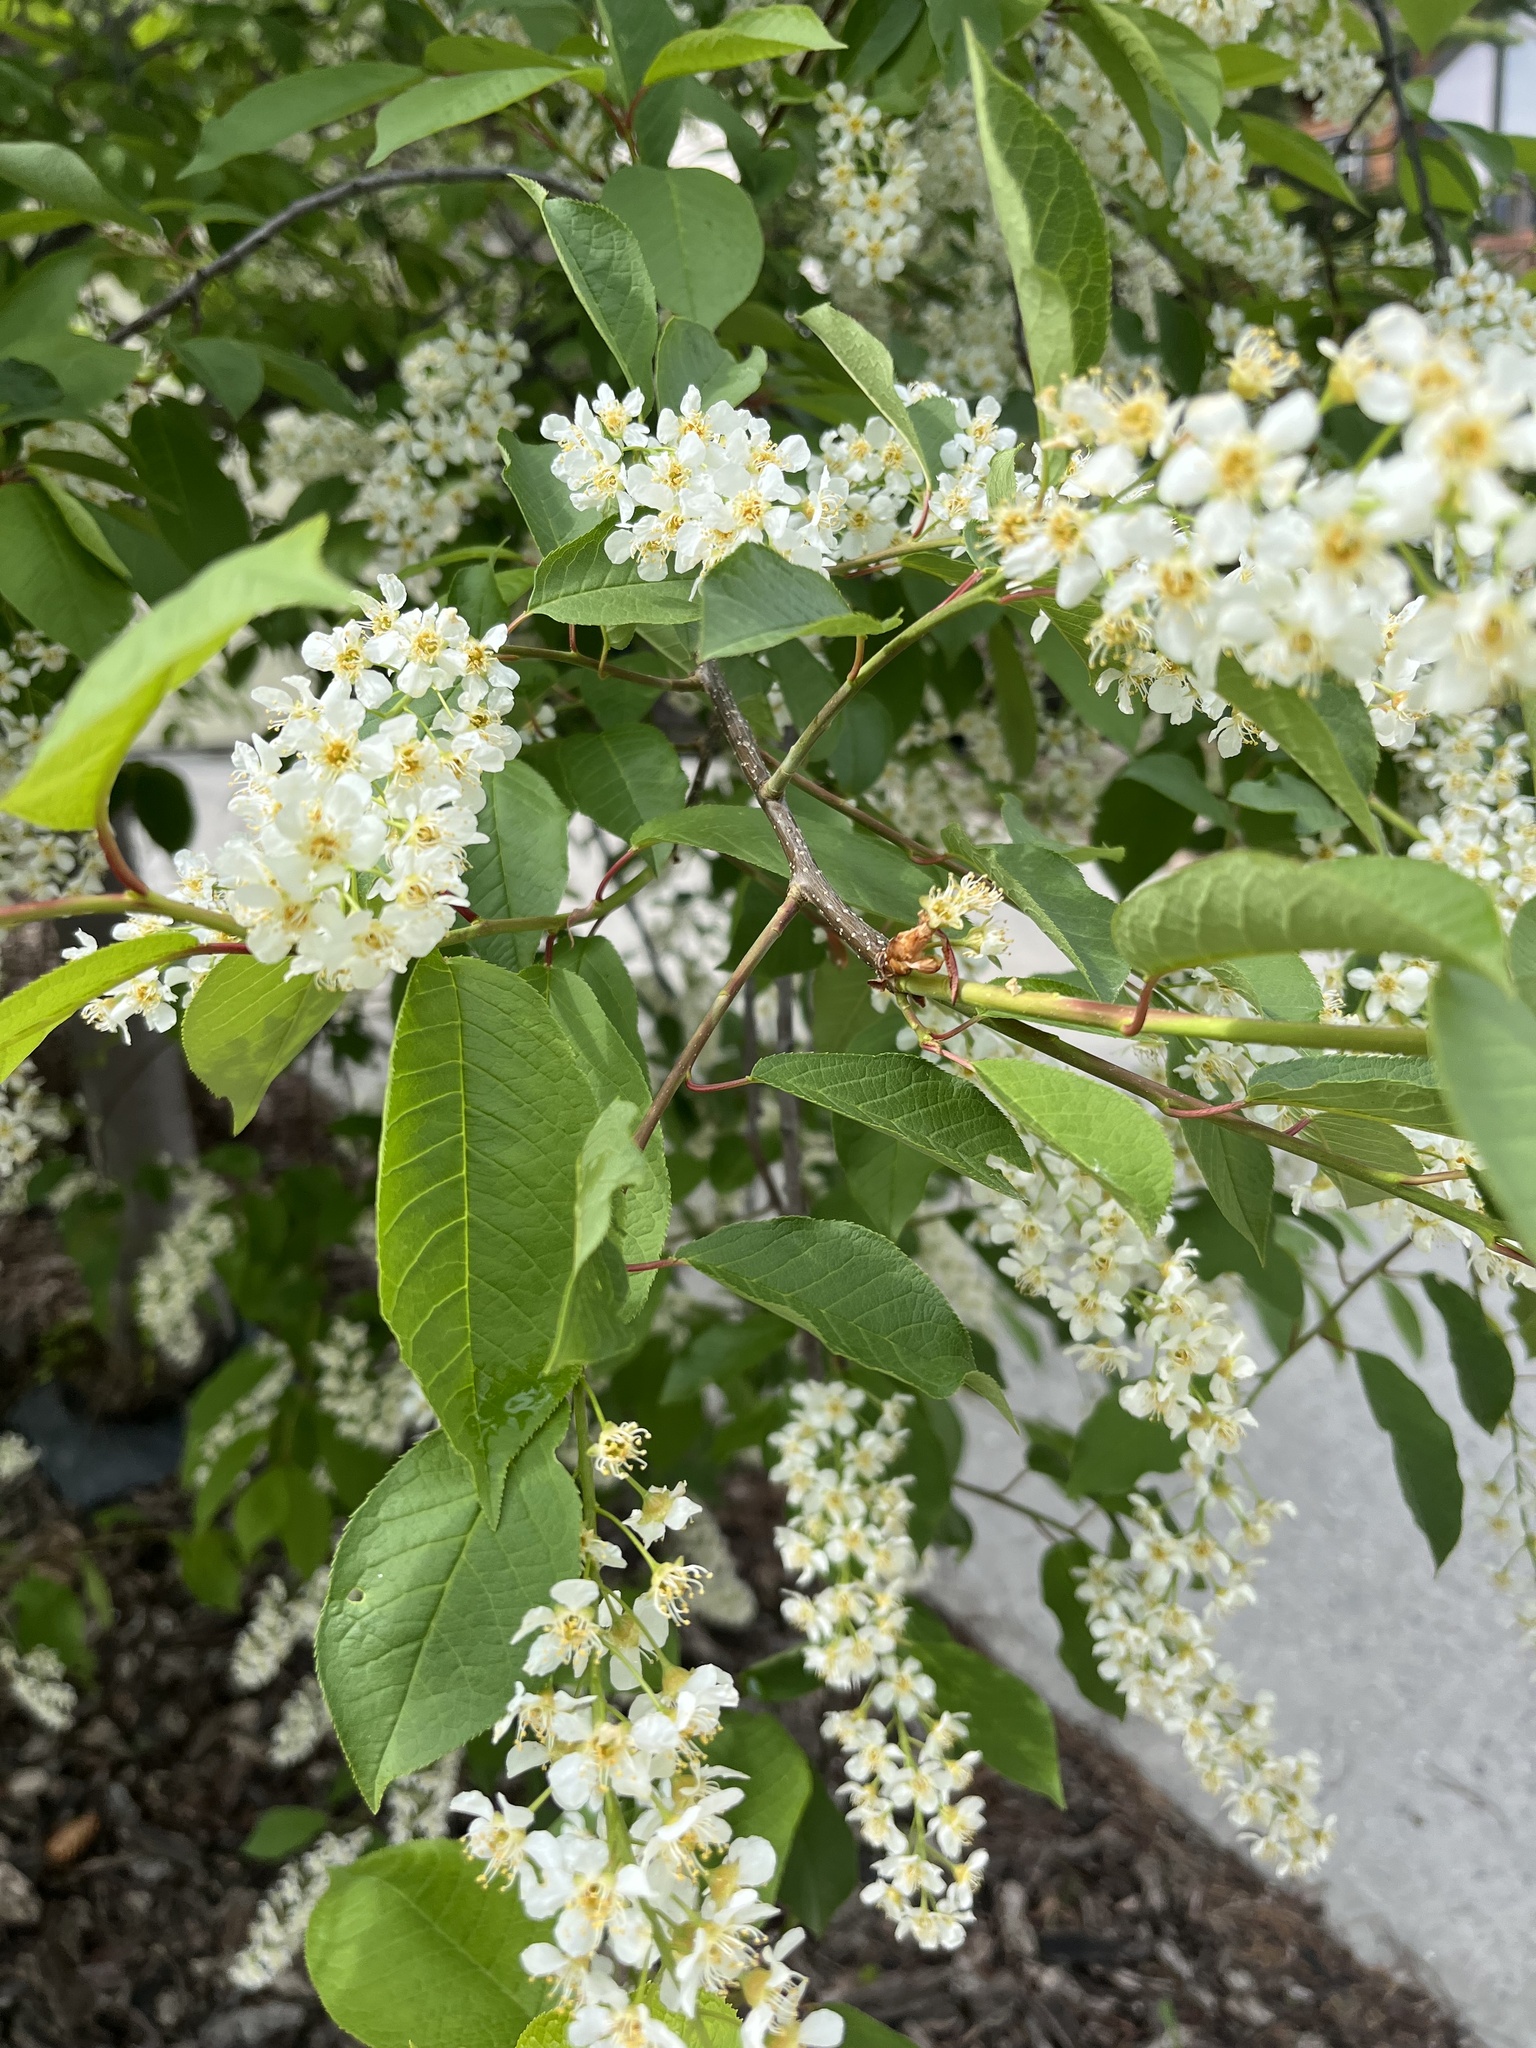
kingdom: Plantae
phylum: Tracheophyta
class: Magnoliopsida
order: Rosales
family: Rosaceae
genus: Prunus
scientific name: Prunus virginiana
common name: Chokecherry
